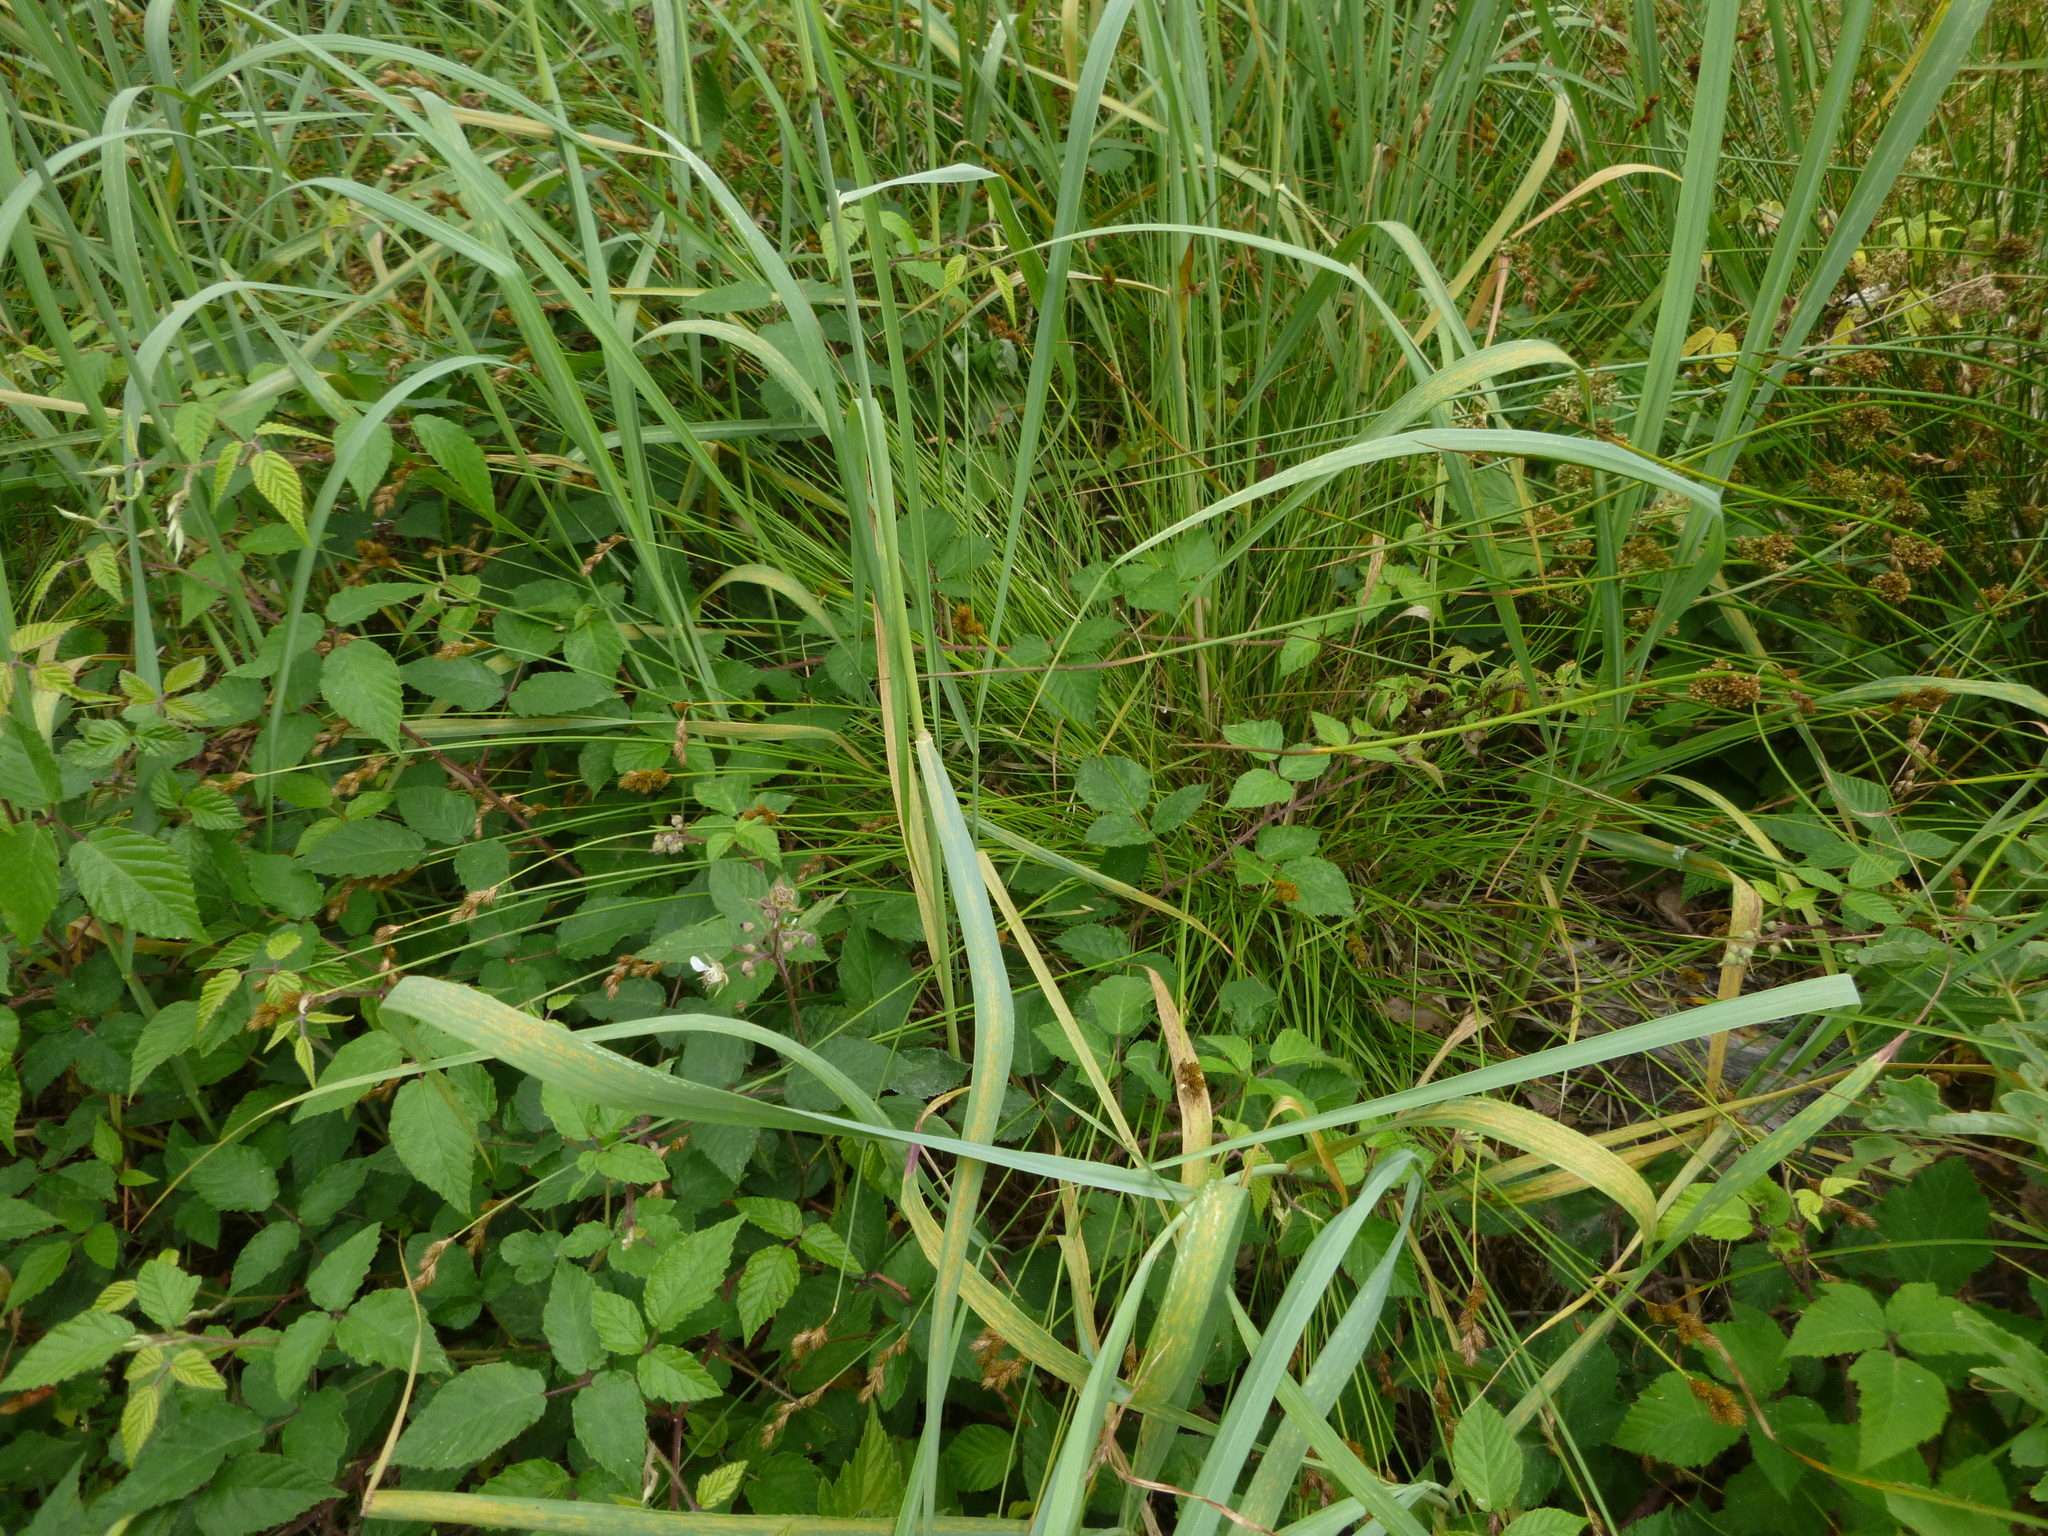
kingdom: Plantae
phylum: Tracheophyta
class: Liliopsida
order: Poales
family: Cyperaceae
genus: Carex
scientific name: Carex leporina
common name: Oval sedge
